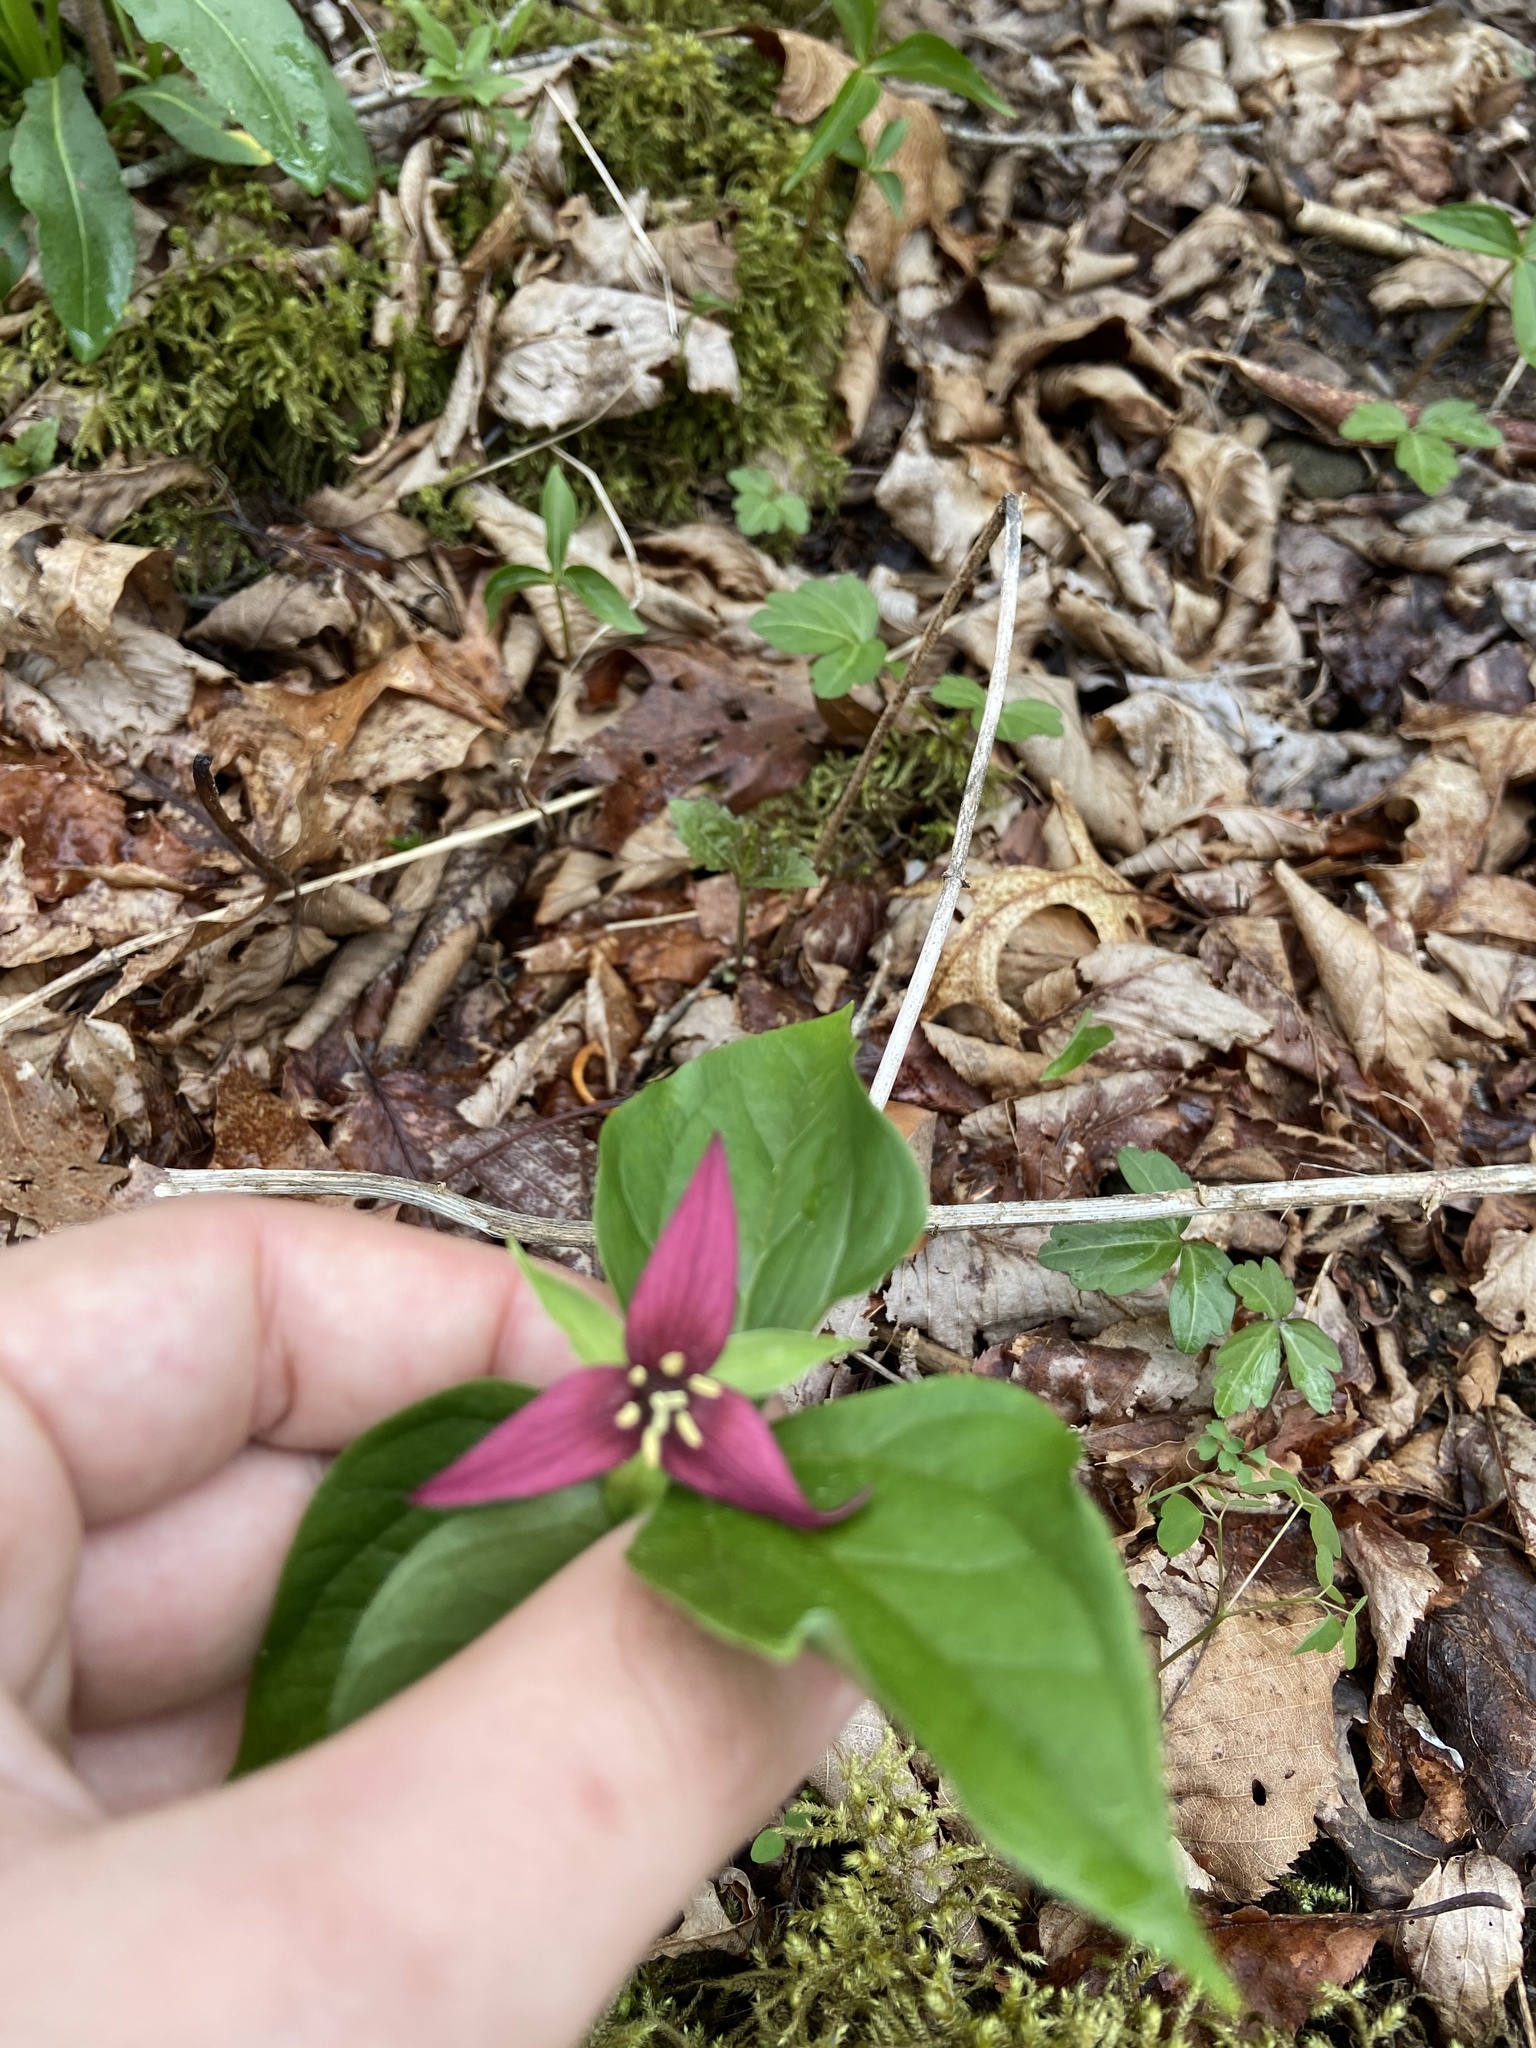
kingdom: Plantae
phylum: Tracheophyta
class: Liliopsida
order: Liliales
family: Melanthiaceae
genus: Trillium
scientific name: Trillium erectum
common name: Purple trillium
